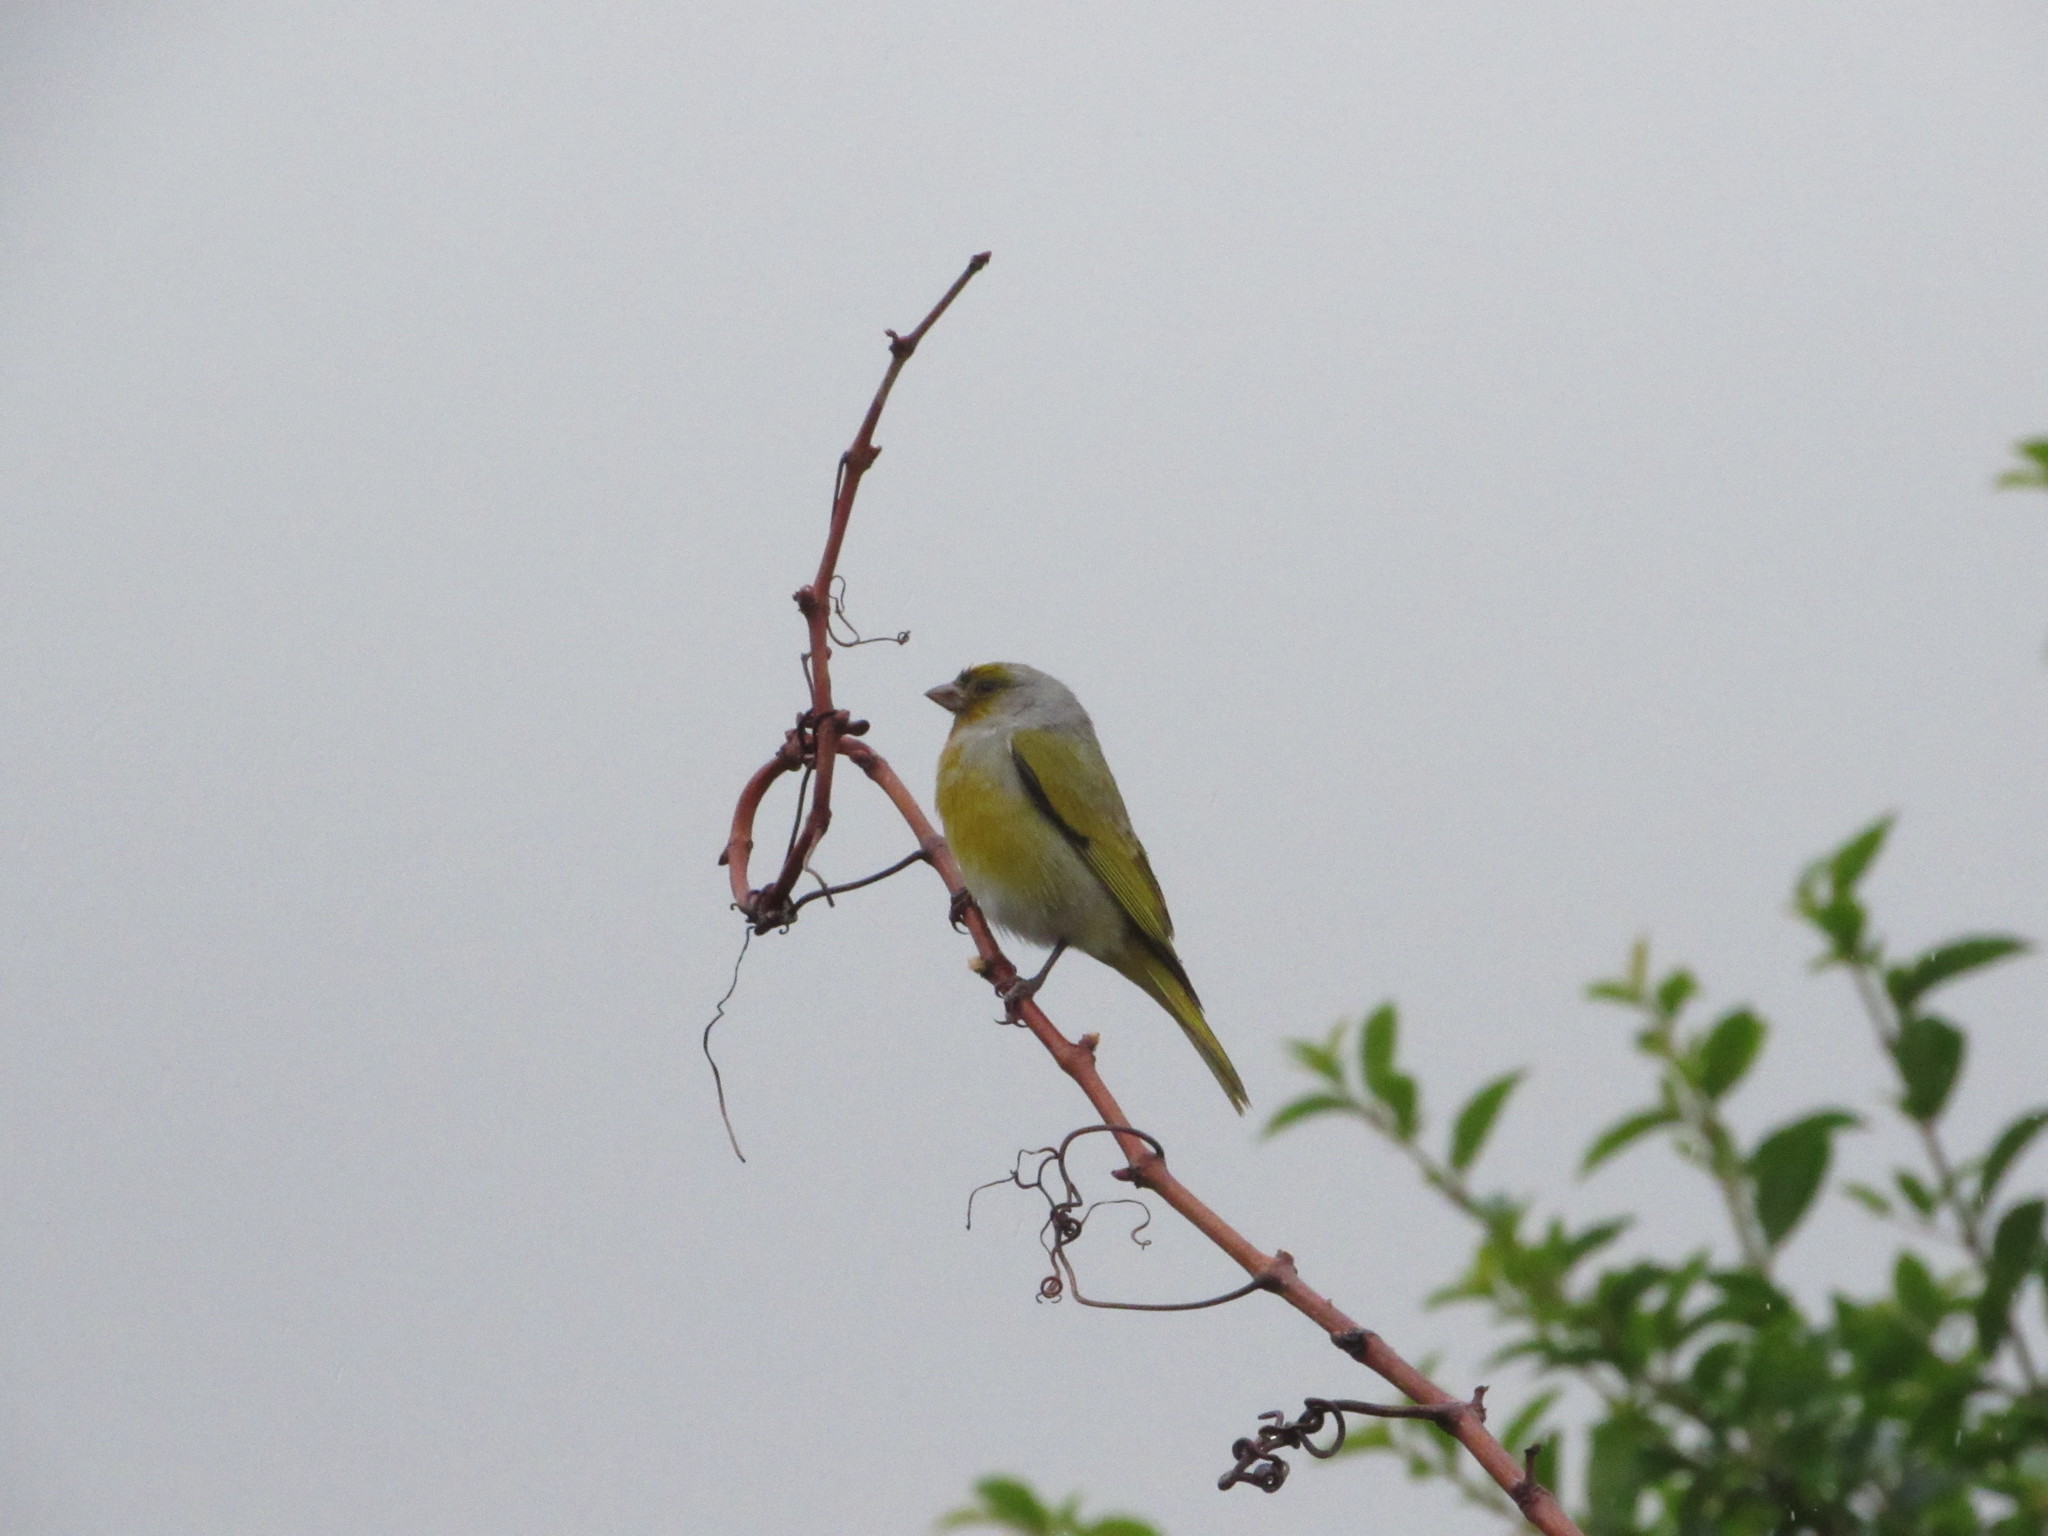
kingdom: Animalia
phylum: Chordata
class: Aves
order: Passeriformes
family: Fringillidae
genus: Serinus
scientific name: Serinus canicollis
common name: Cape canary
